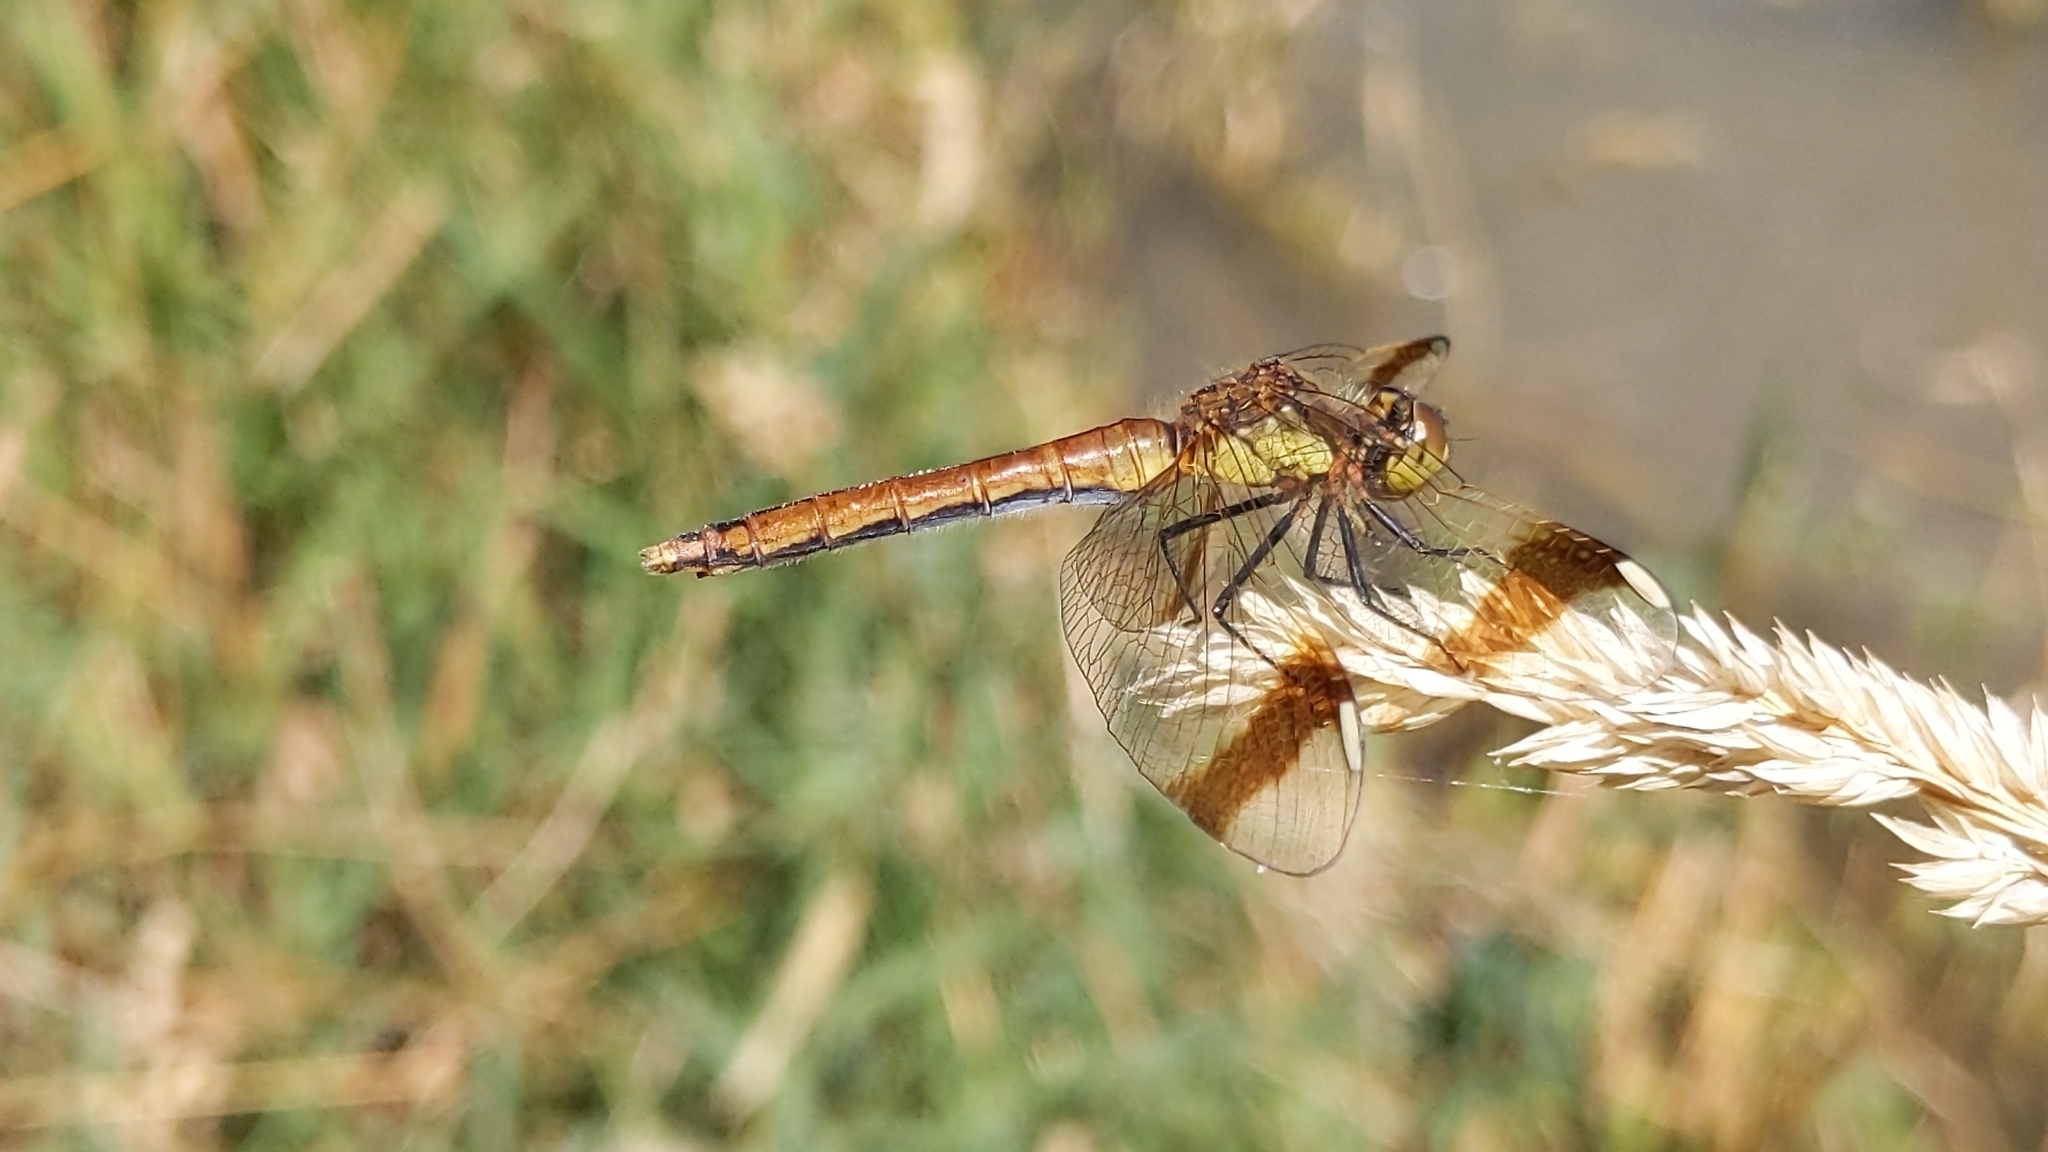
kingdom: Animalia
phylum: Arthropoda
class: Insecta
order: Odonata
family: Libellulidae
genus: Sympetrum
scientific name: Sympetrum pedemontanum
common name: Banded darter
